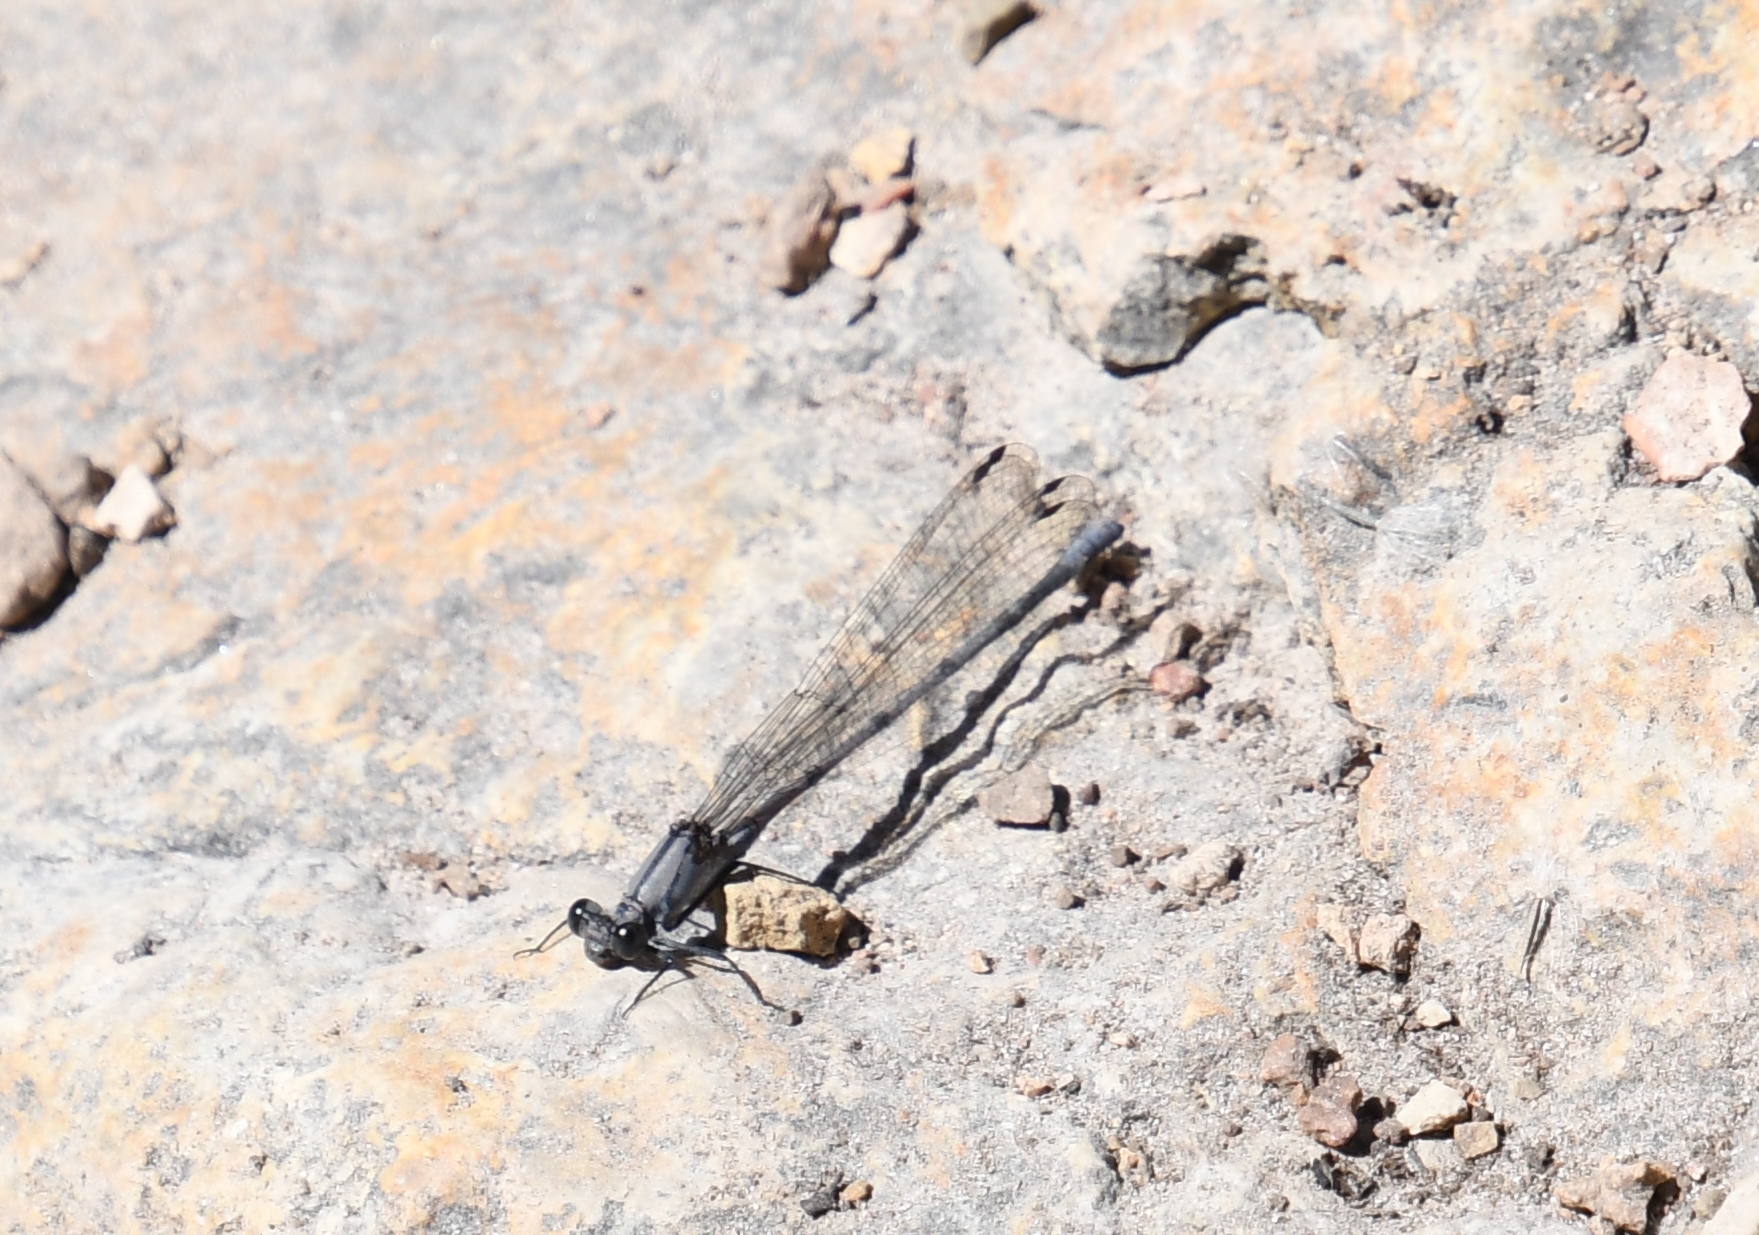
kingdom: Animalia
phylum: Arthropoda
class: Insecta
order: Odonata
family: Coenagrionidae
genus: Argia
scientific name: Argia tonto
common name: Tonto dancer
